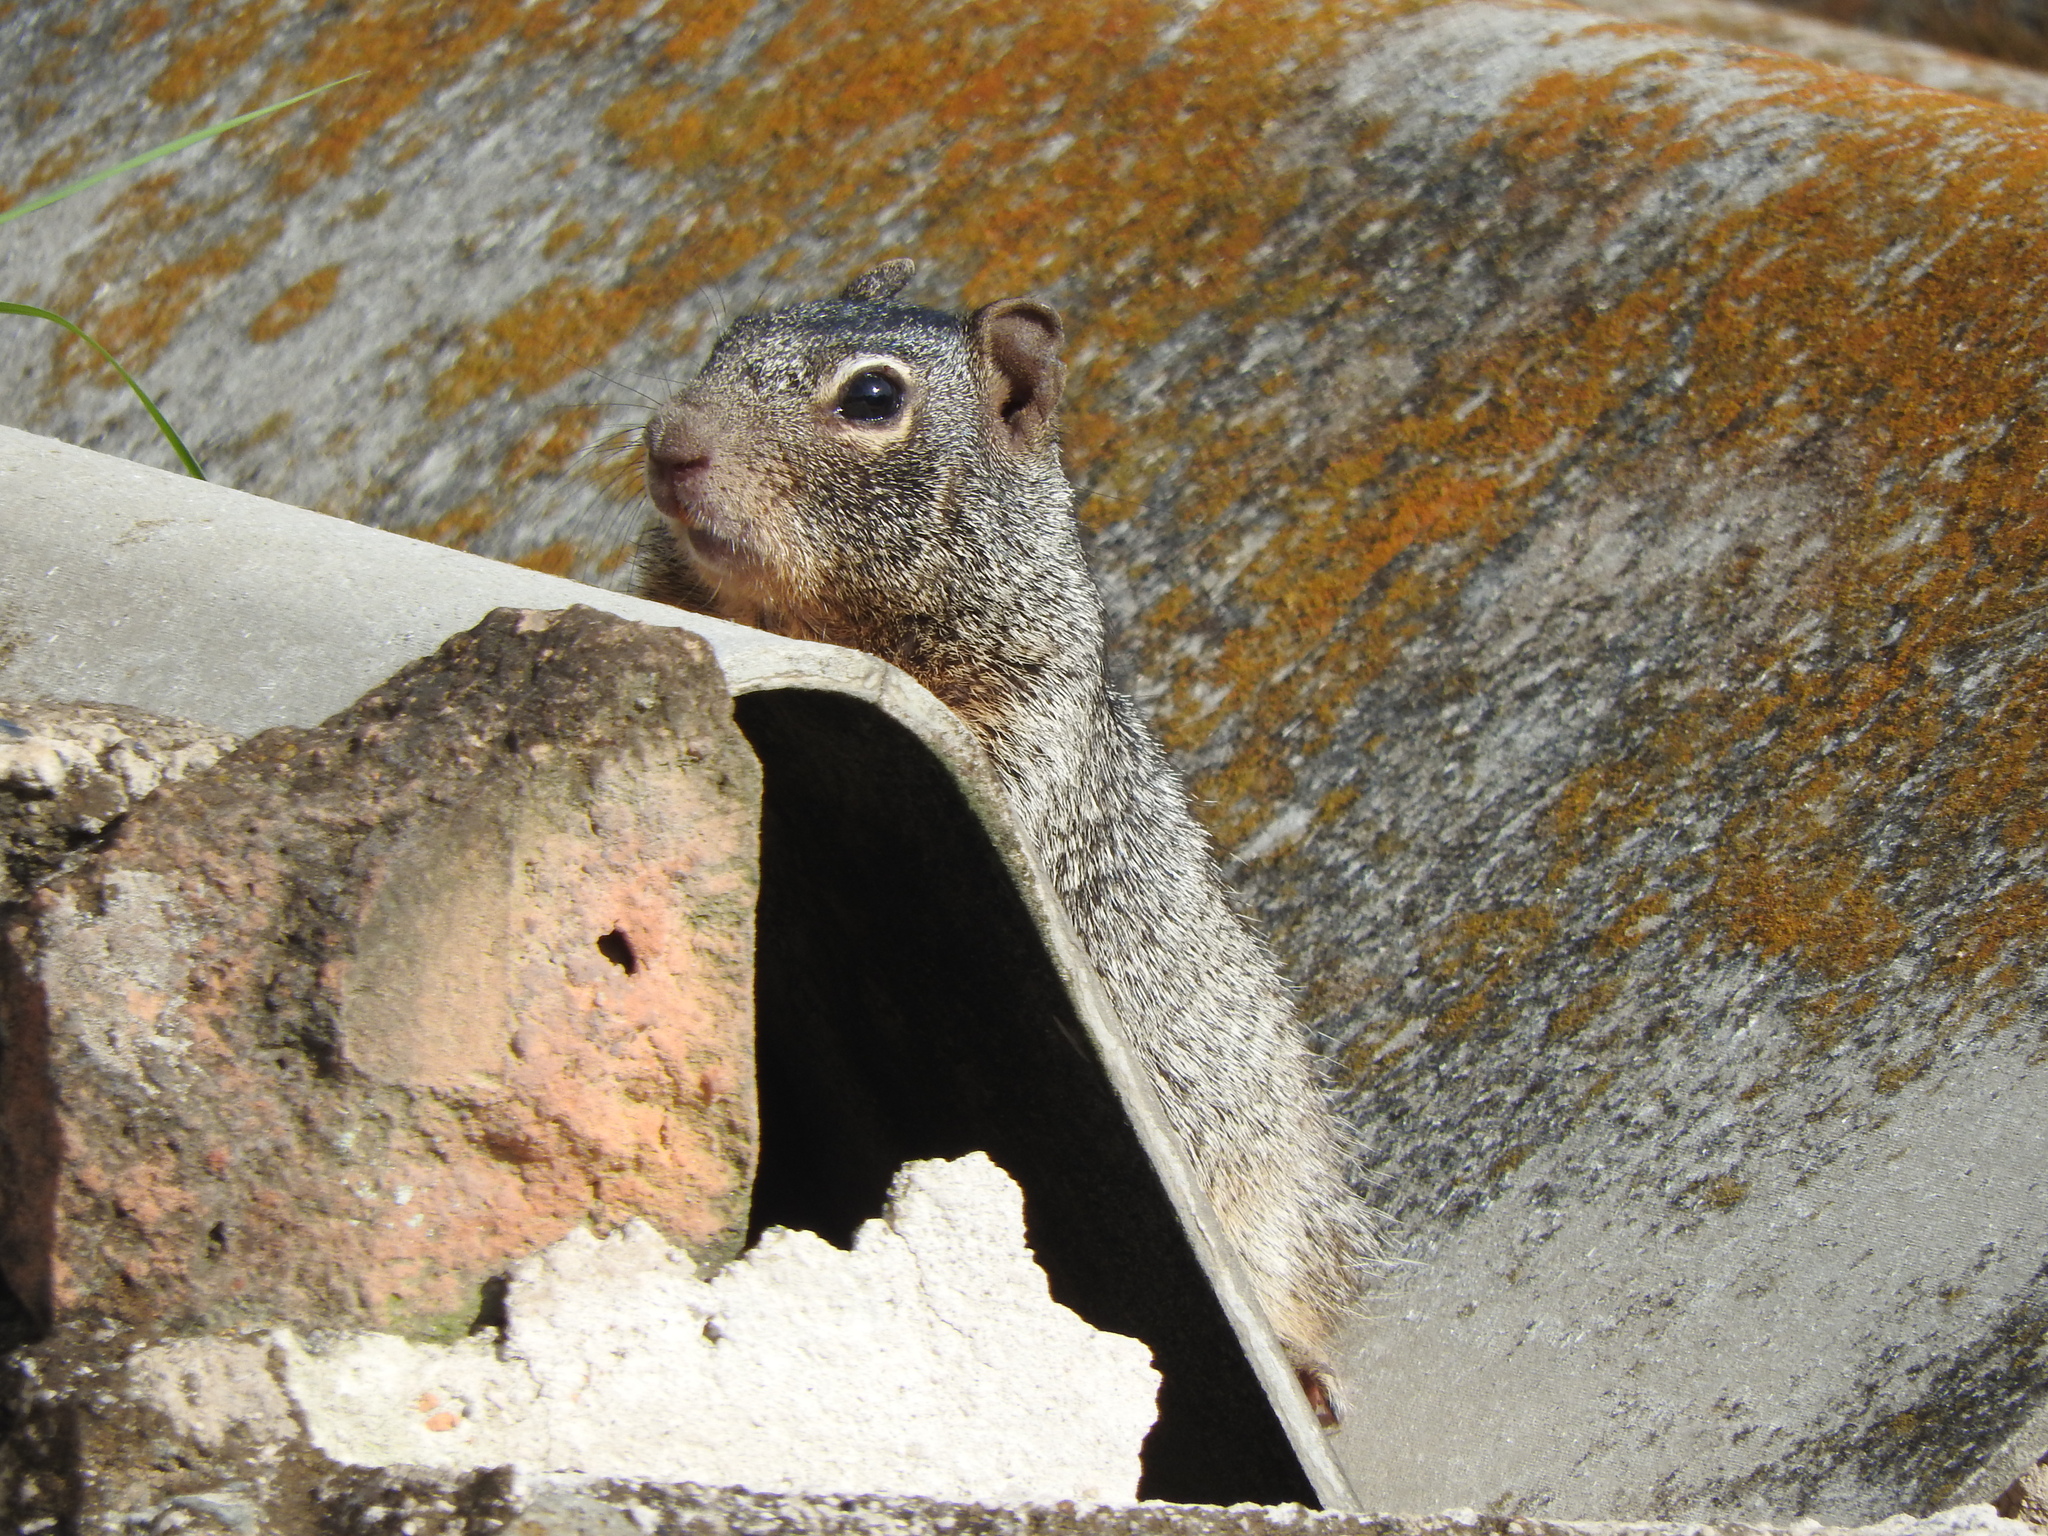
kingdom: Animalia
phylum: Chordata
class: Mammalia
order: Rodentia
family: Sciuridae
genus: Otospermophilus
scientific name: Otospermophilus variegatus
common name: Rock squirrel
